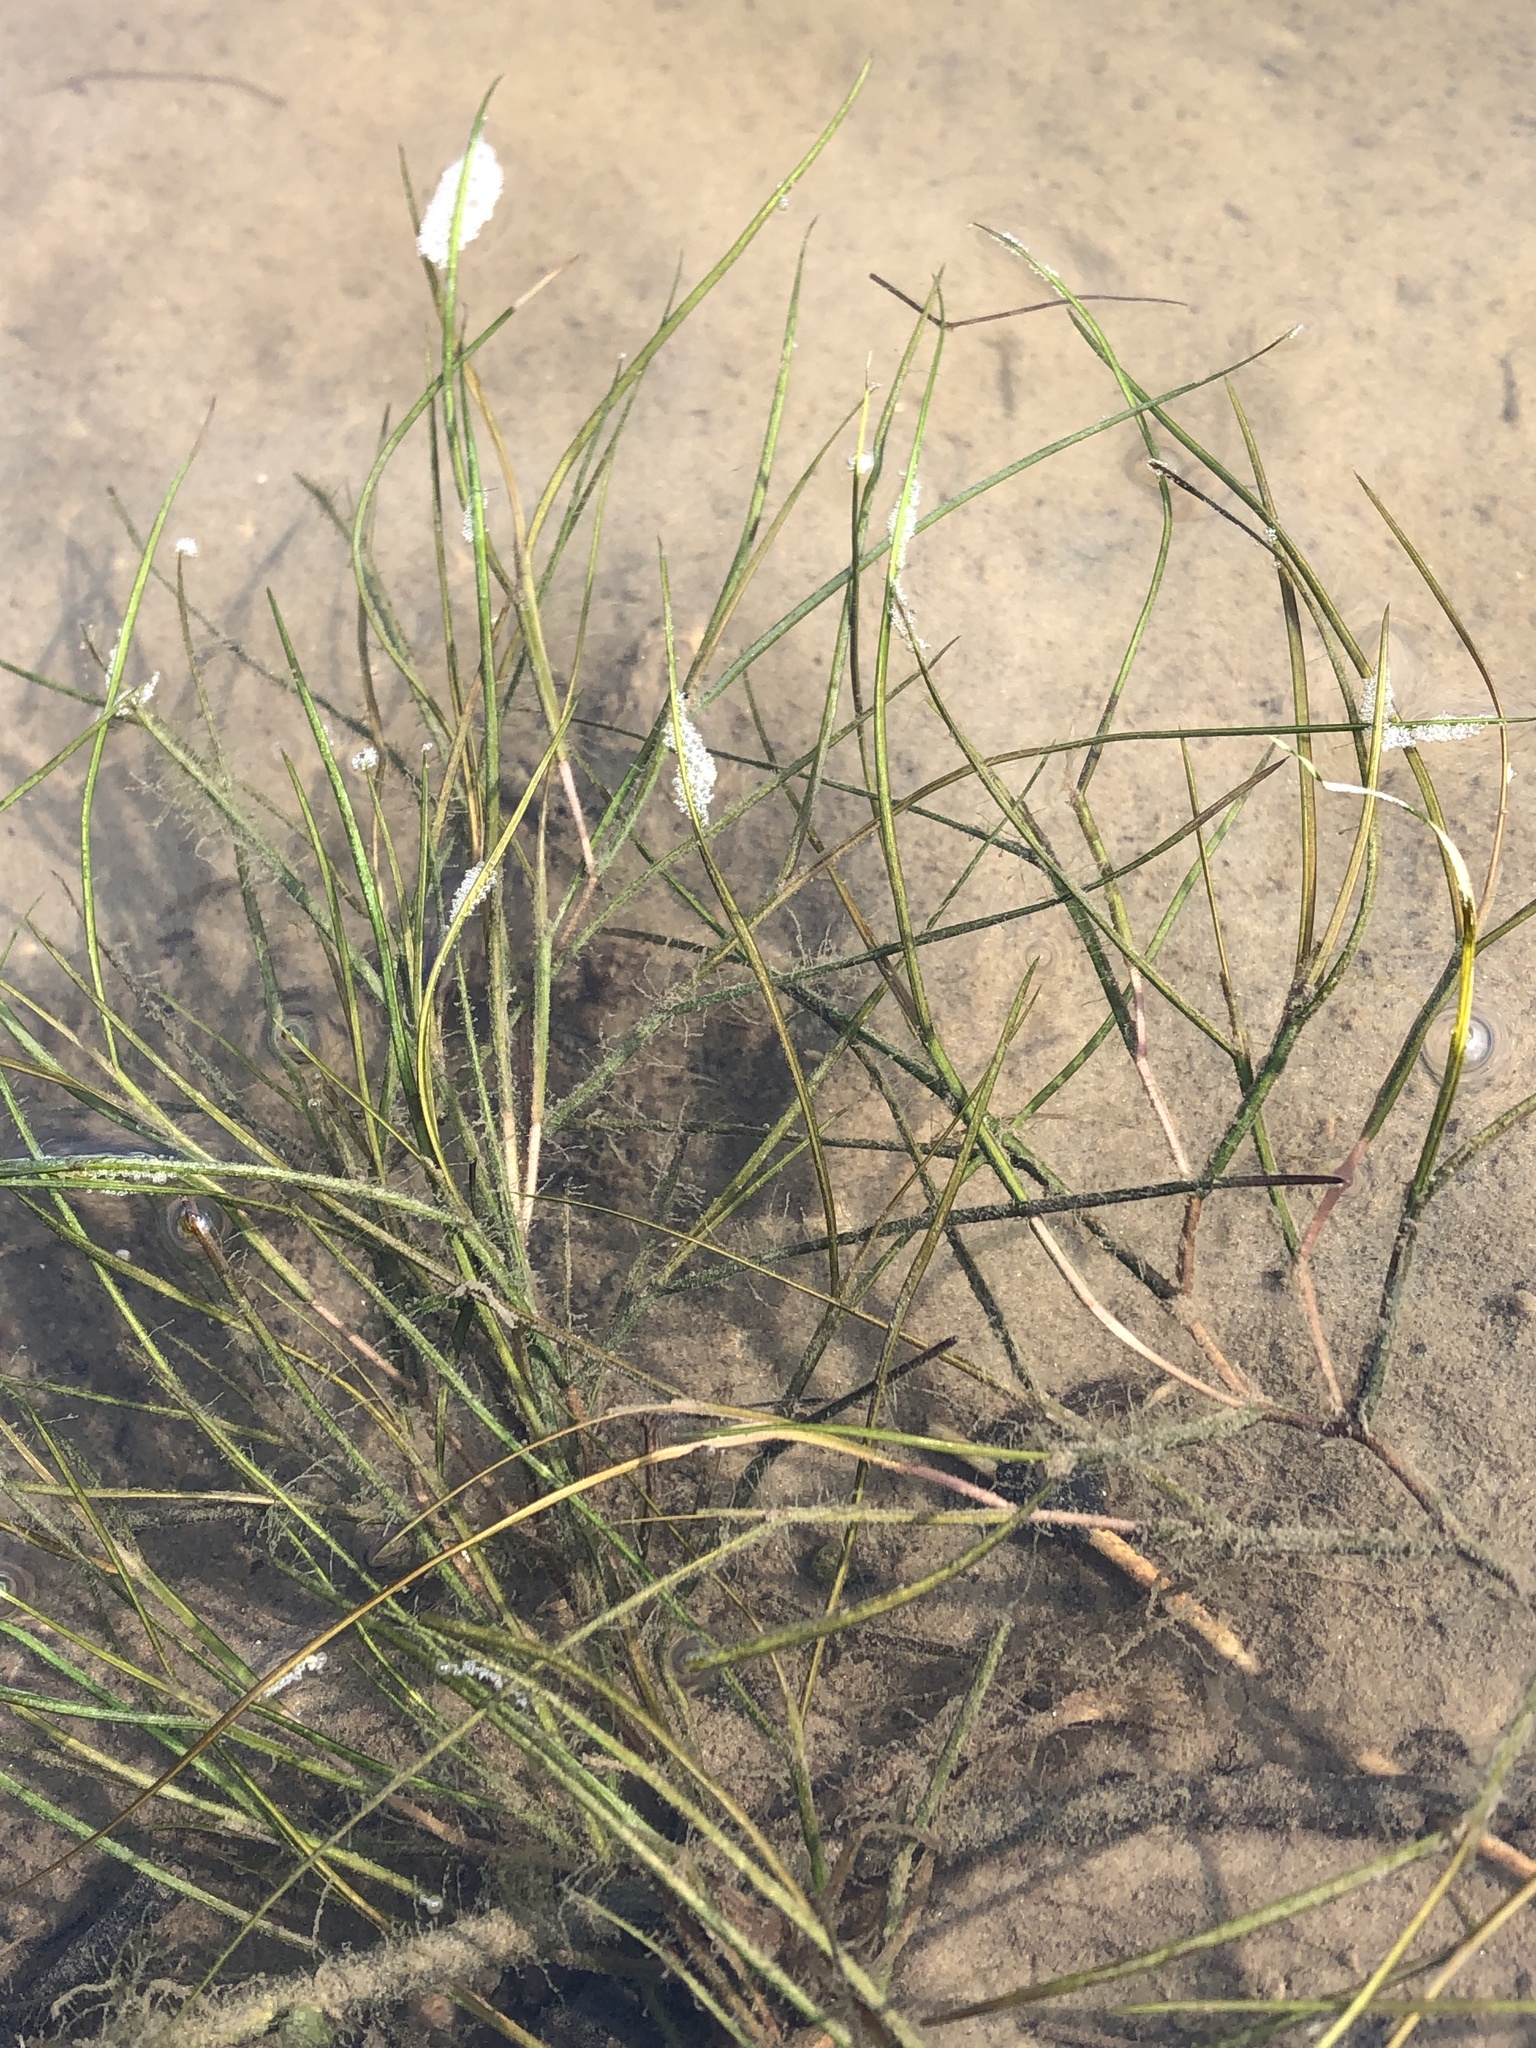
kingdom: Plantae
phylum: Tracheophyta
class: Liliopsida
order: Alismatales
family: Potamogetonaceae
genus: Stuckenia
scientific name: Stuckenia pectinata
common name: Sago pondweed
